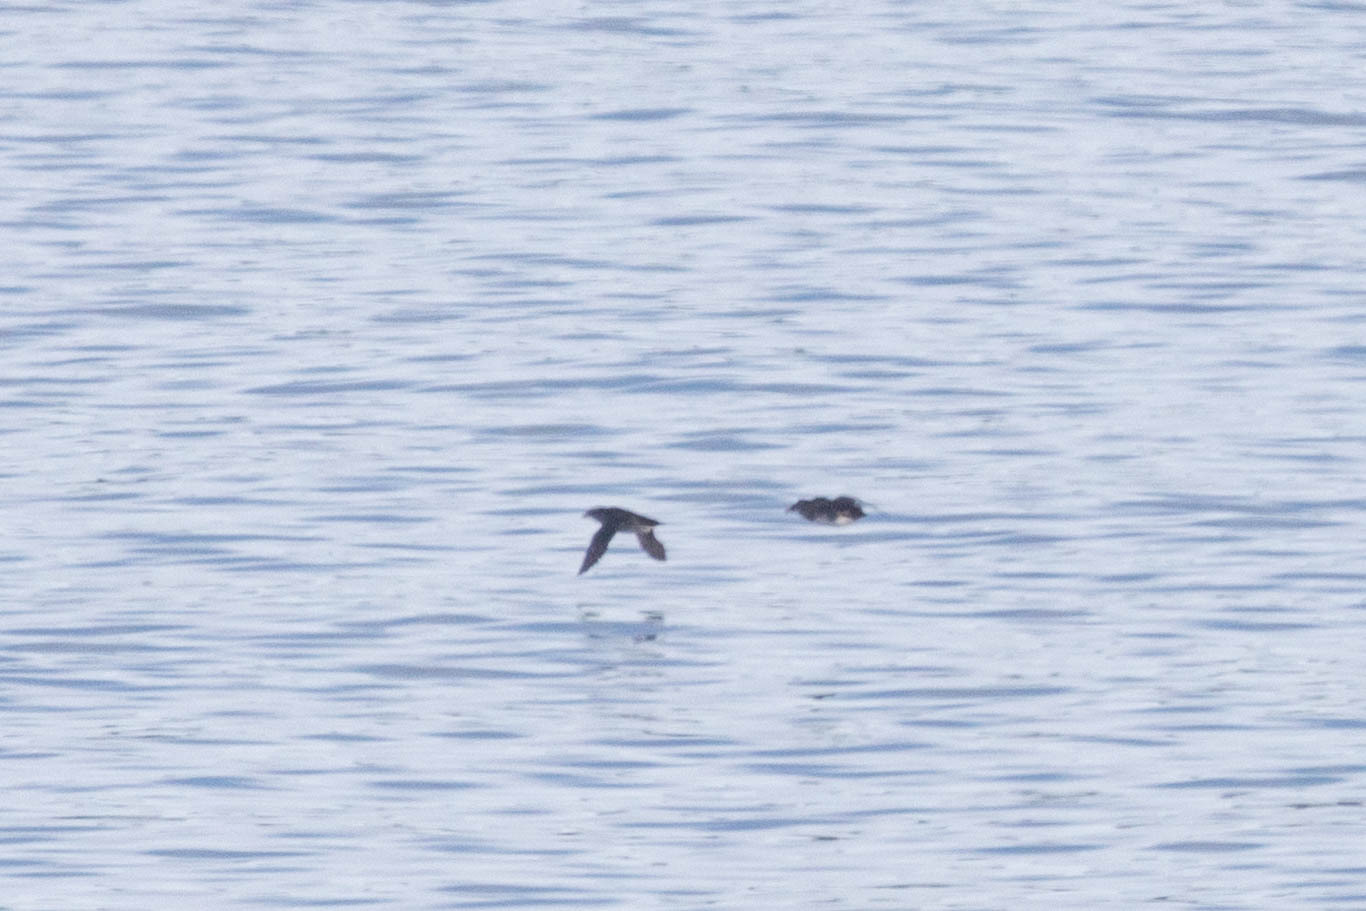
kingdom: Animalia
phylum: Chordata
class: Aves
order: Charadriiformes
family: Alcidae
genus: Cerorhinca
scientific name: Cerorhinca monocerata
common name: Rhinoceros auklet
